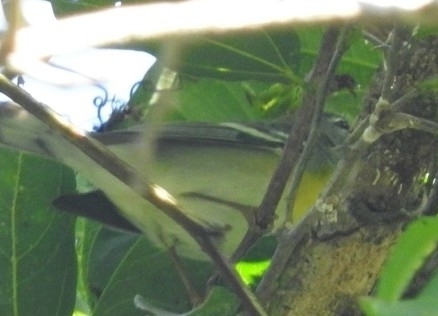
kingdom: Animalia
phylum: Chordata
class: Aves
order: Passeriformes
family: Parulidae
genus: Setophaga
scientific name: Setophaga americana
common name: Northern parula
